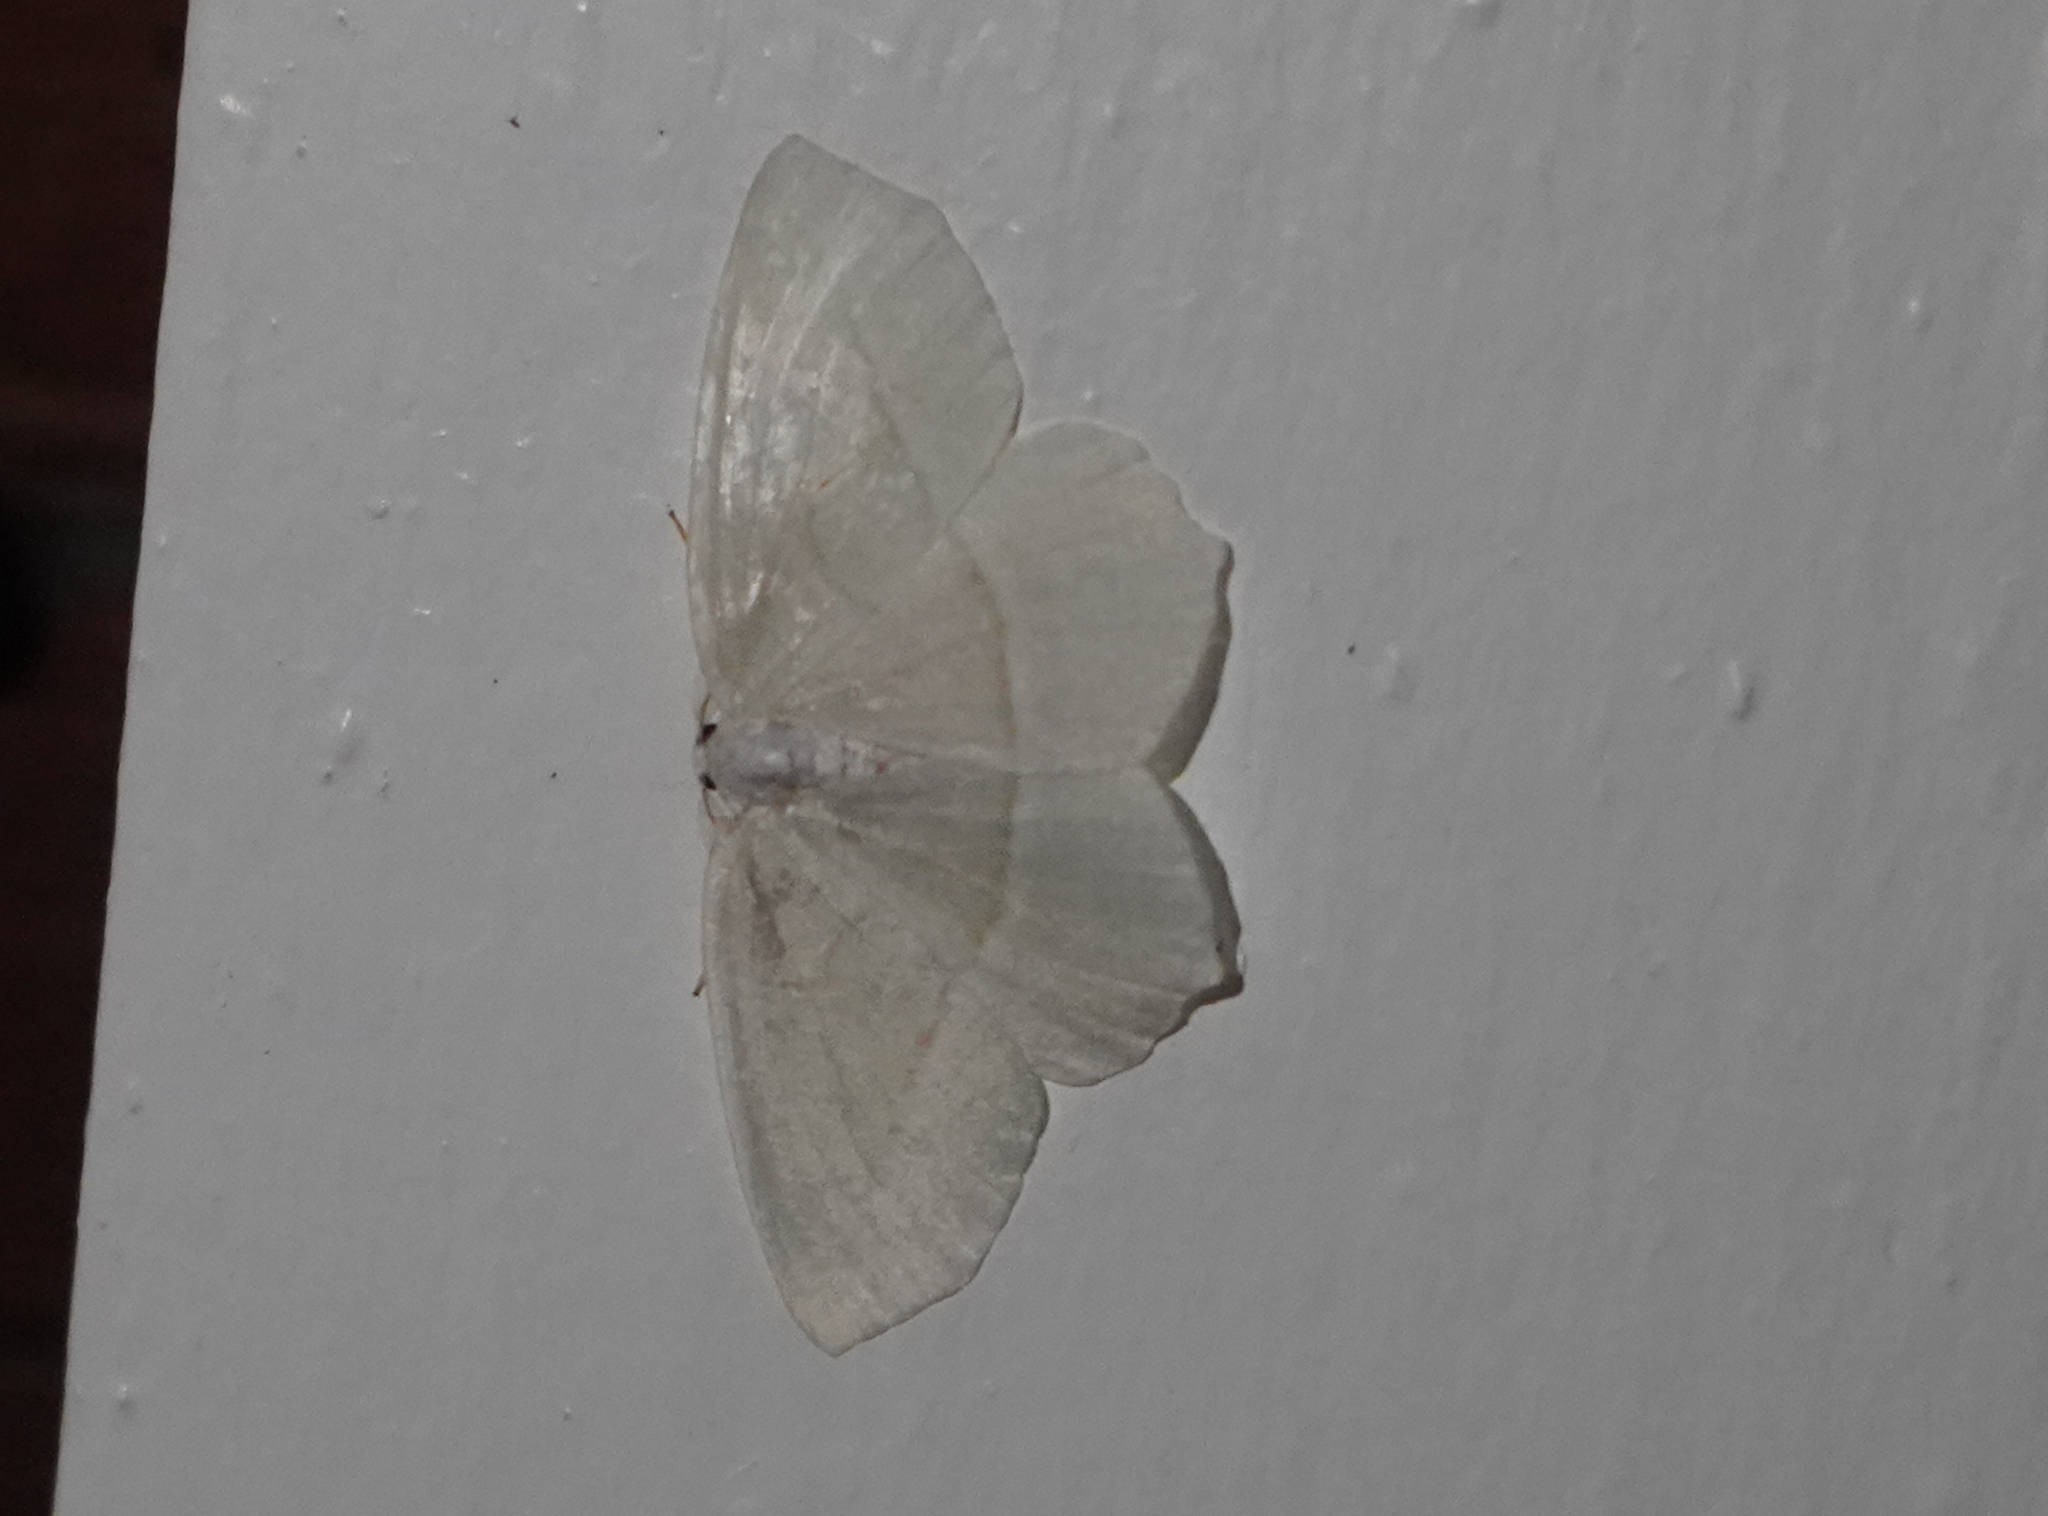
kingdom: Animalia
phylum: Arthropoda
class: Insecta
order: Lepidoptera
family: Geometridae
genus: Campaea
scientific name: Campaea perlata
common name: Fringed looper
